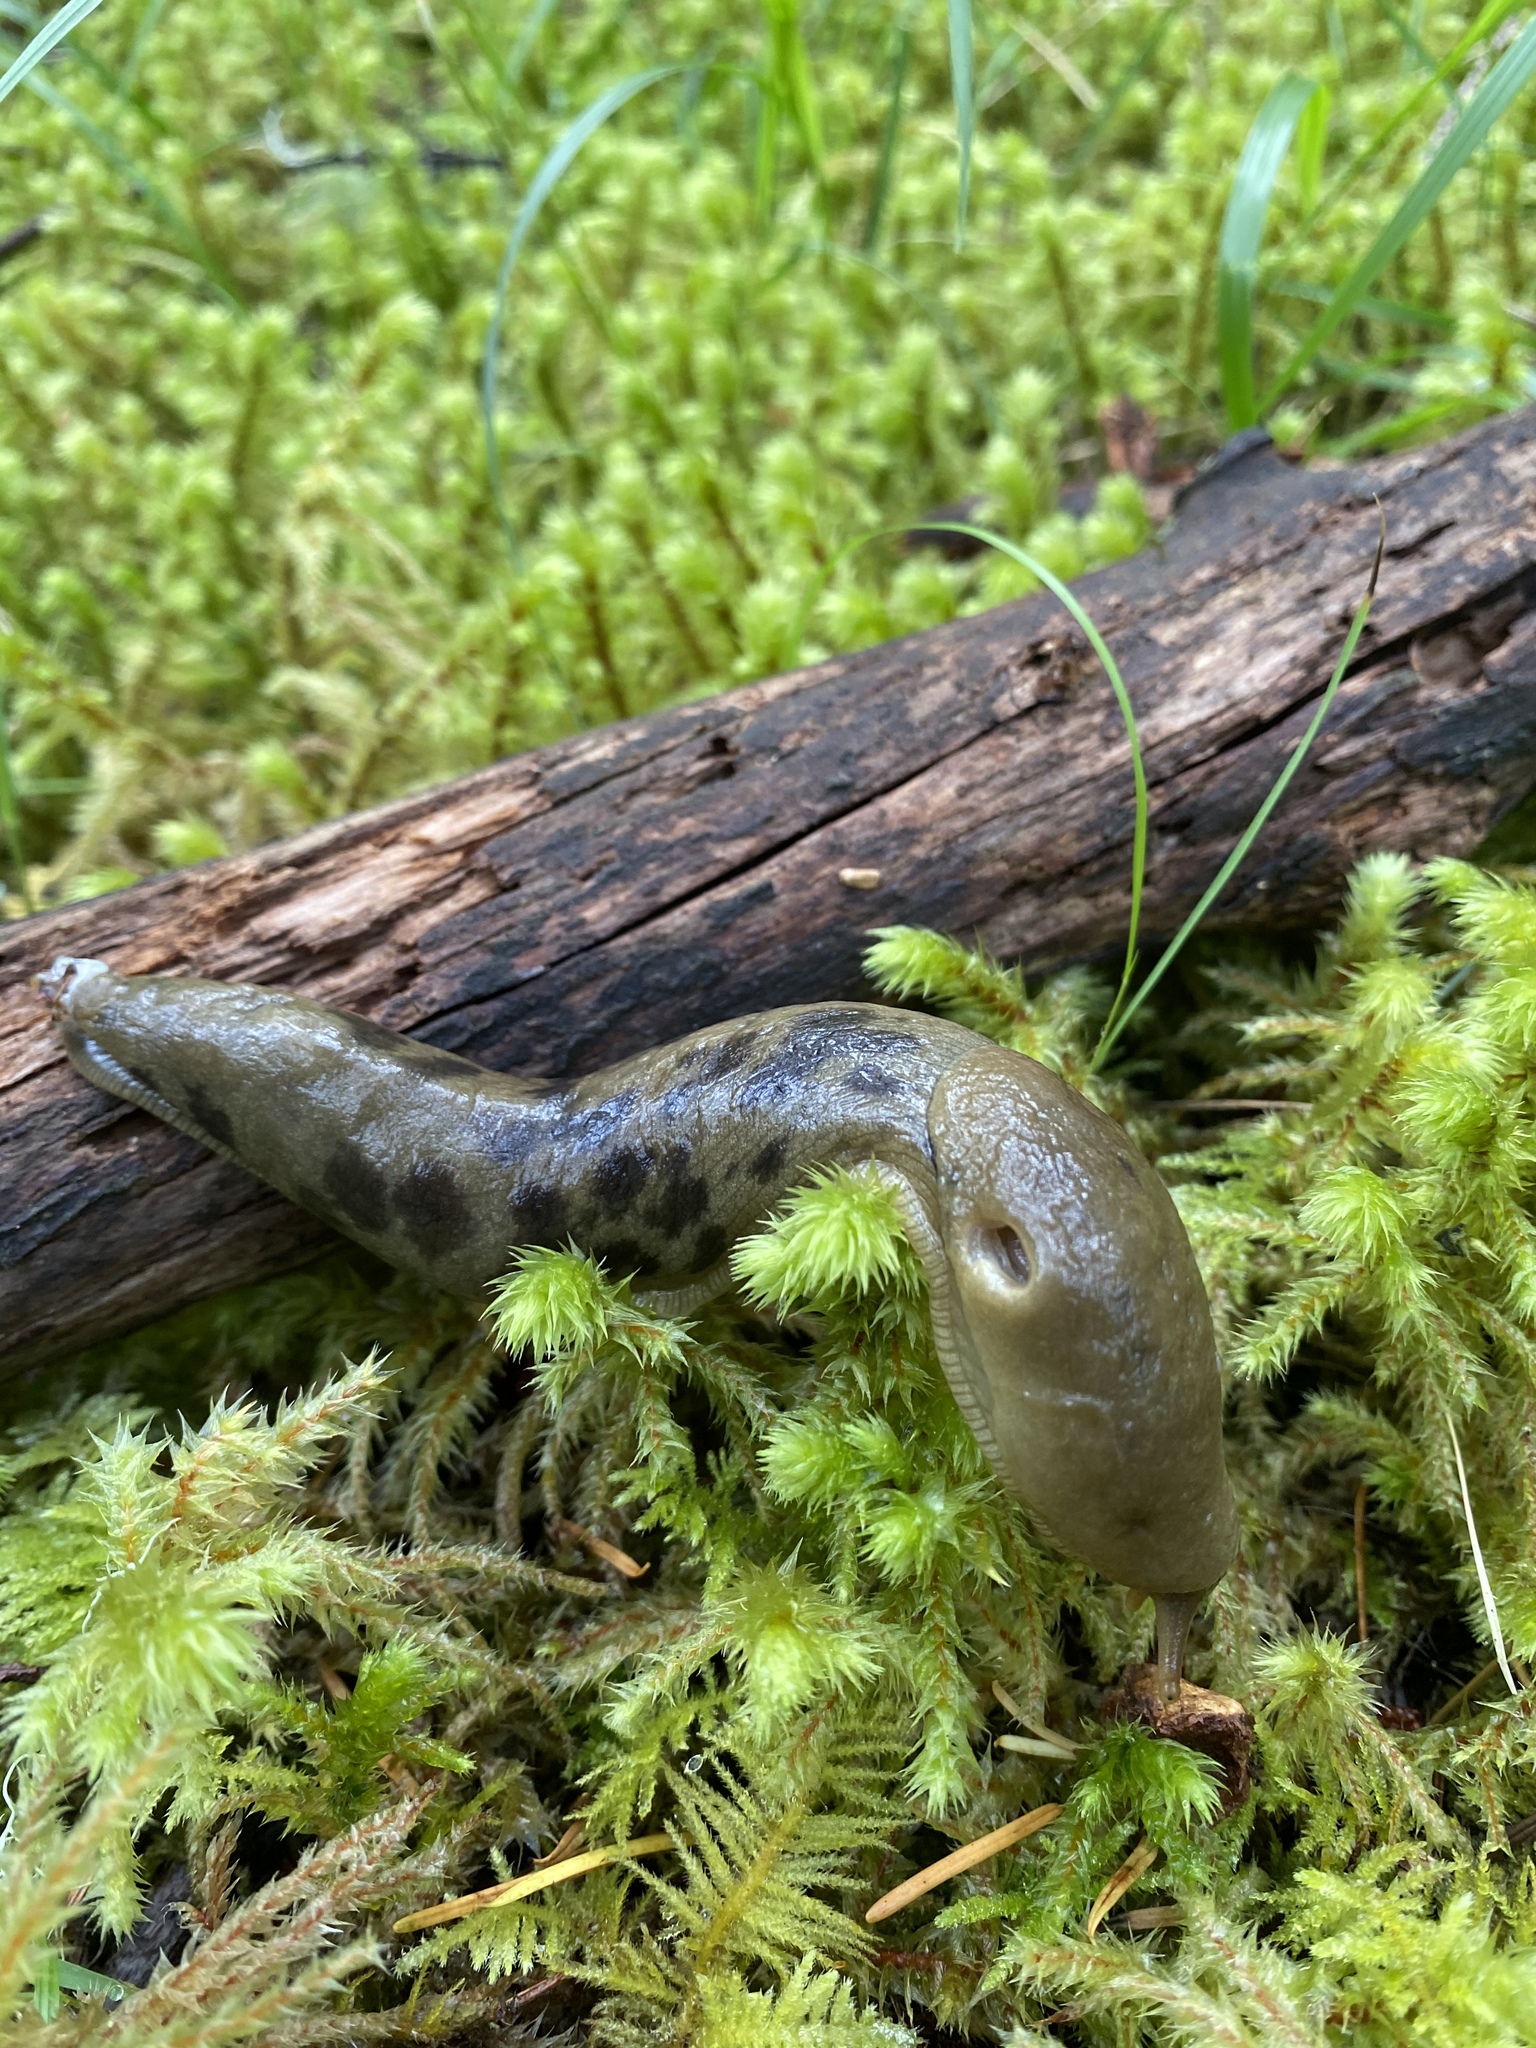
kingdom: Animalia
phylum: Mollusca
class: Gastropoda
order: Stylommatophora
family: Ariolimacidae
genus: Ariolimax
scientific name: Ariolimax columbianus
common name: Pacific banana slug
